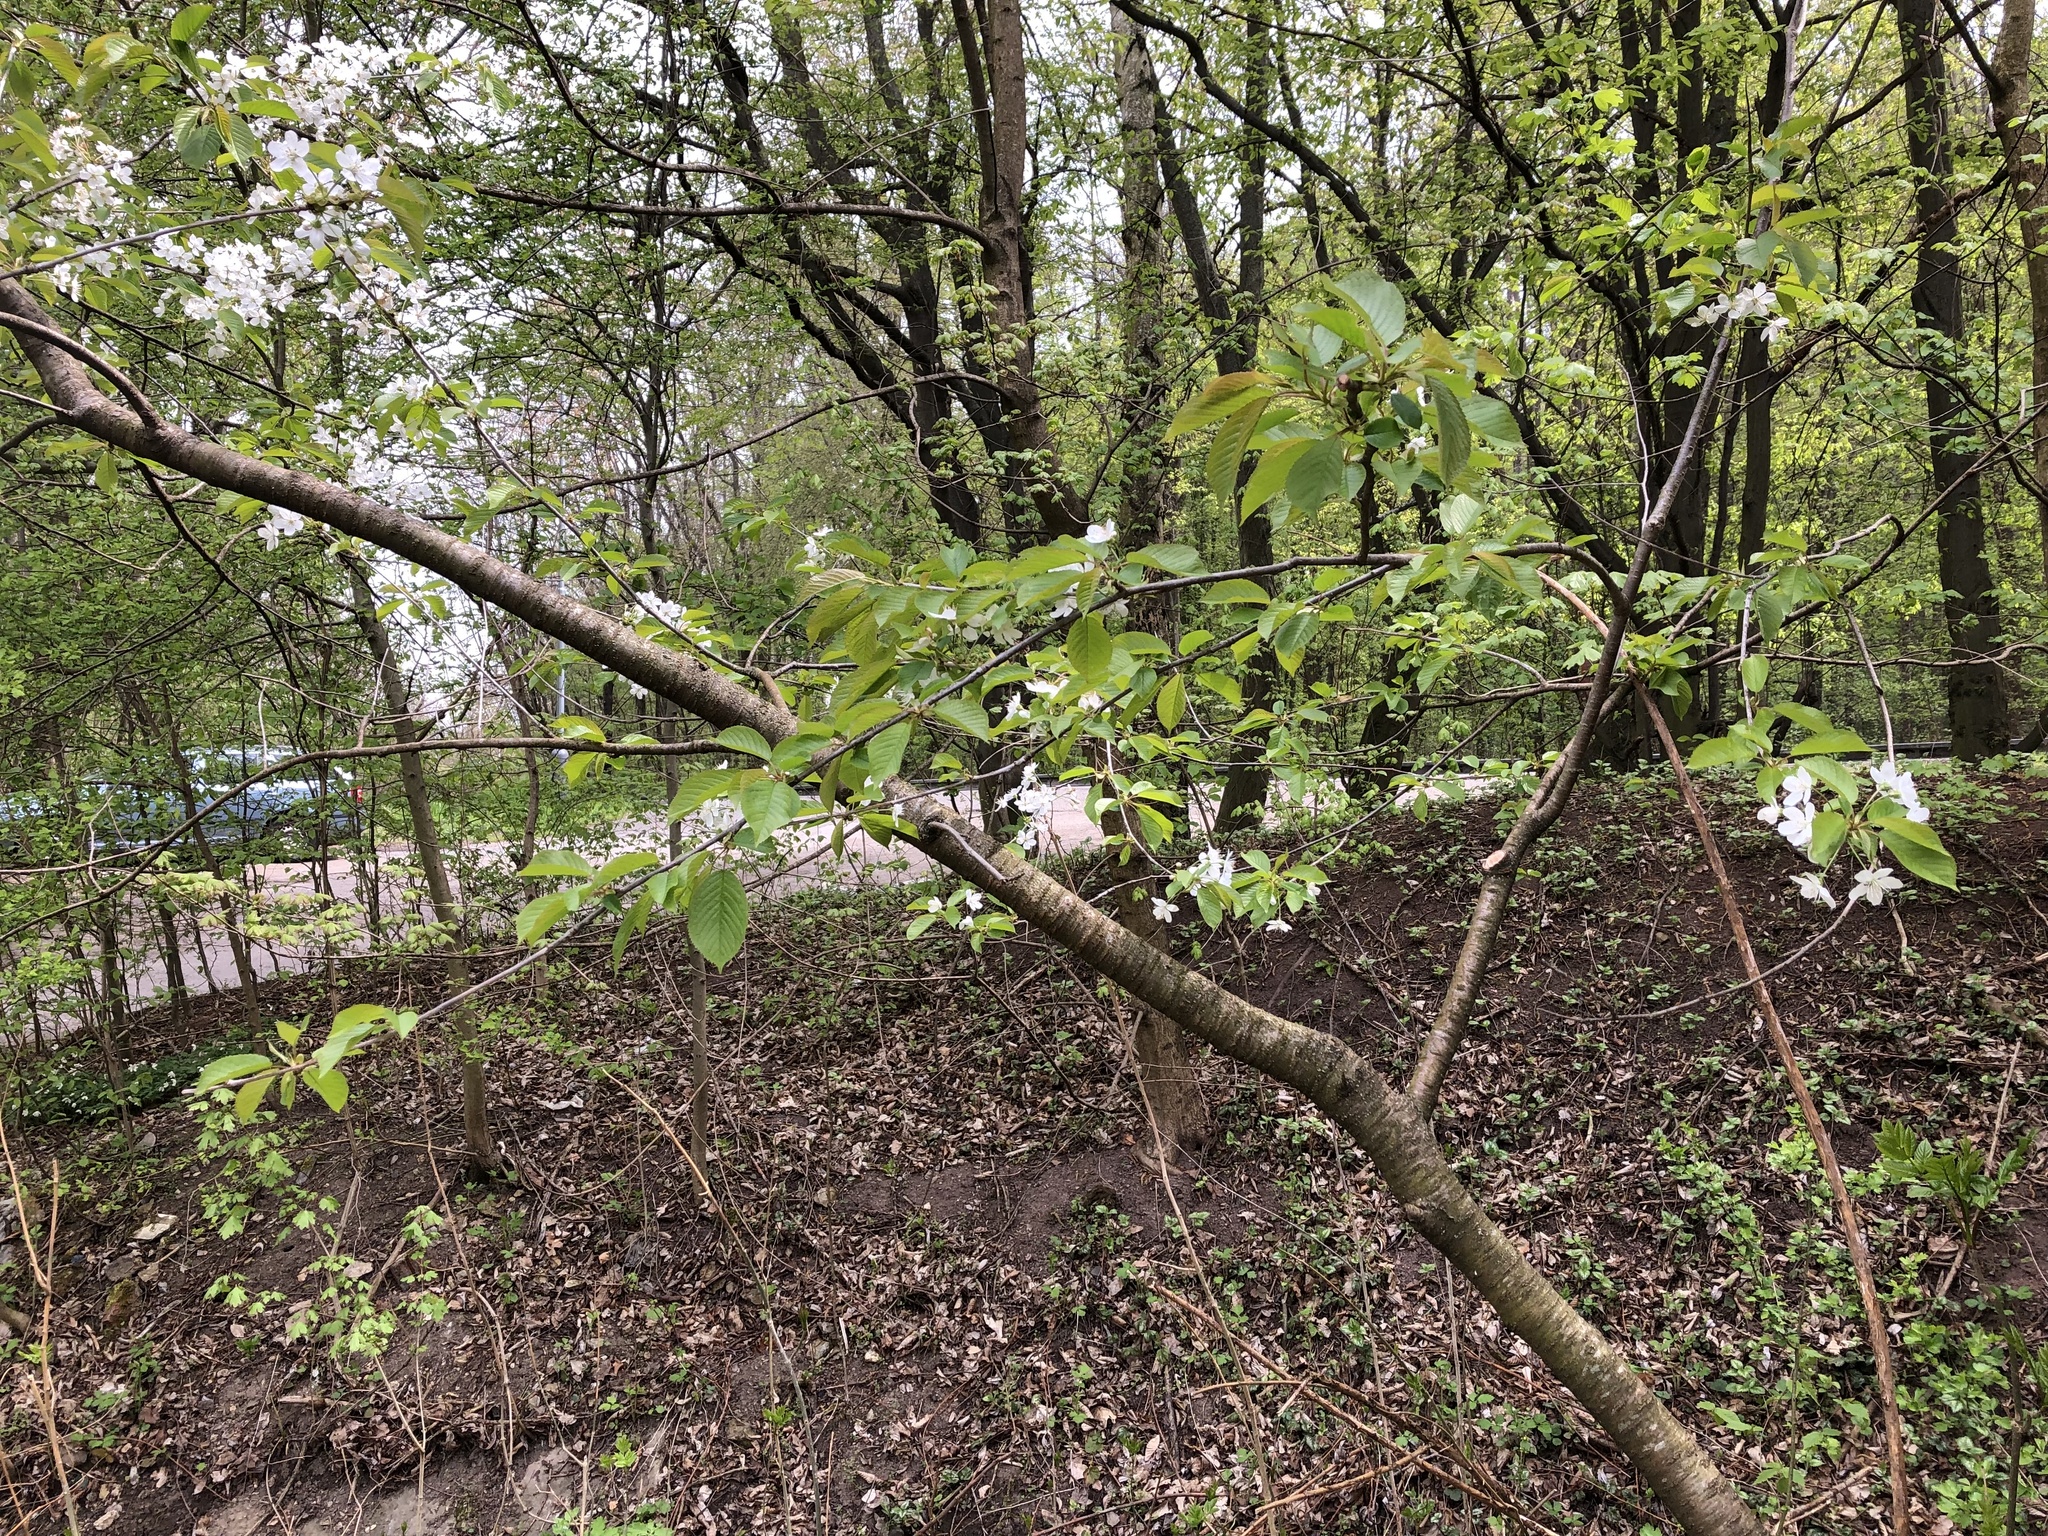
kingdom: Plantae
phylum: Tracheophyta
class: Magnoliopsida
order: Rosales
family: Rosaceae
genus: Prunus
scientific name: Prunus avium
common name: Sweet cherry
